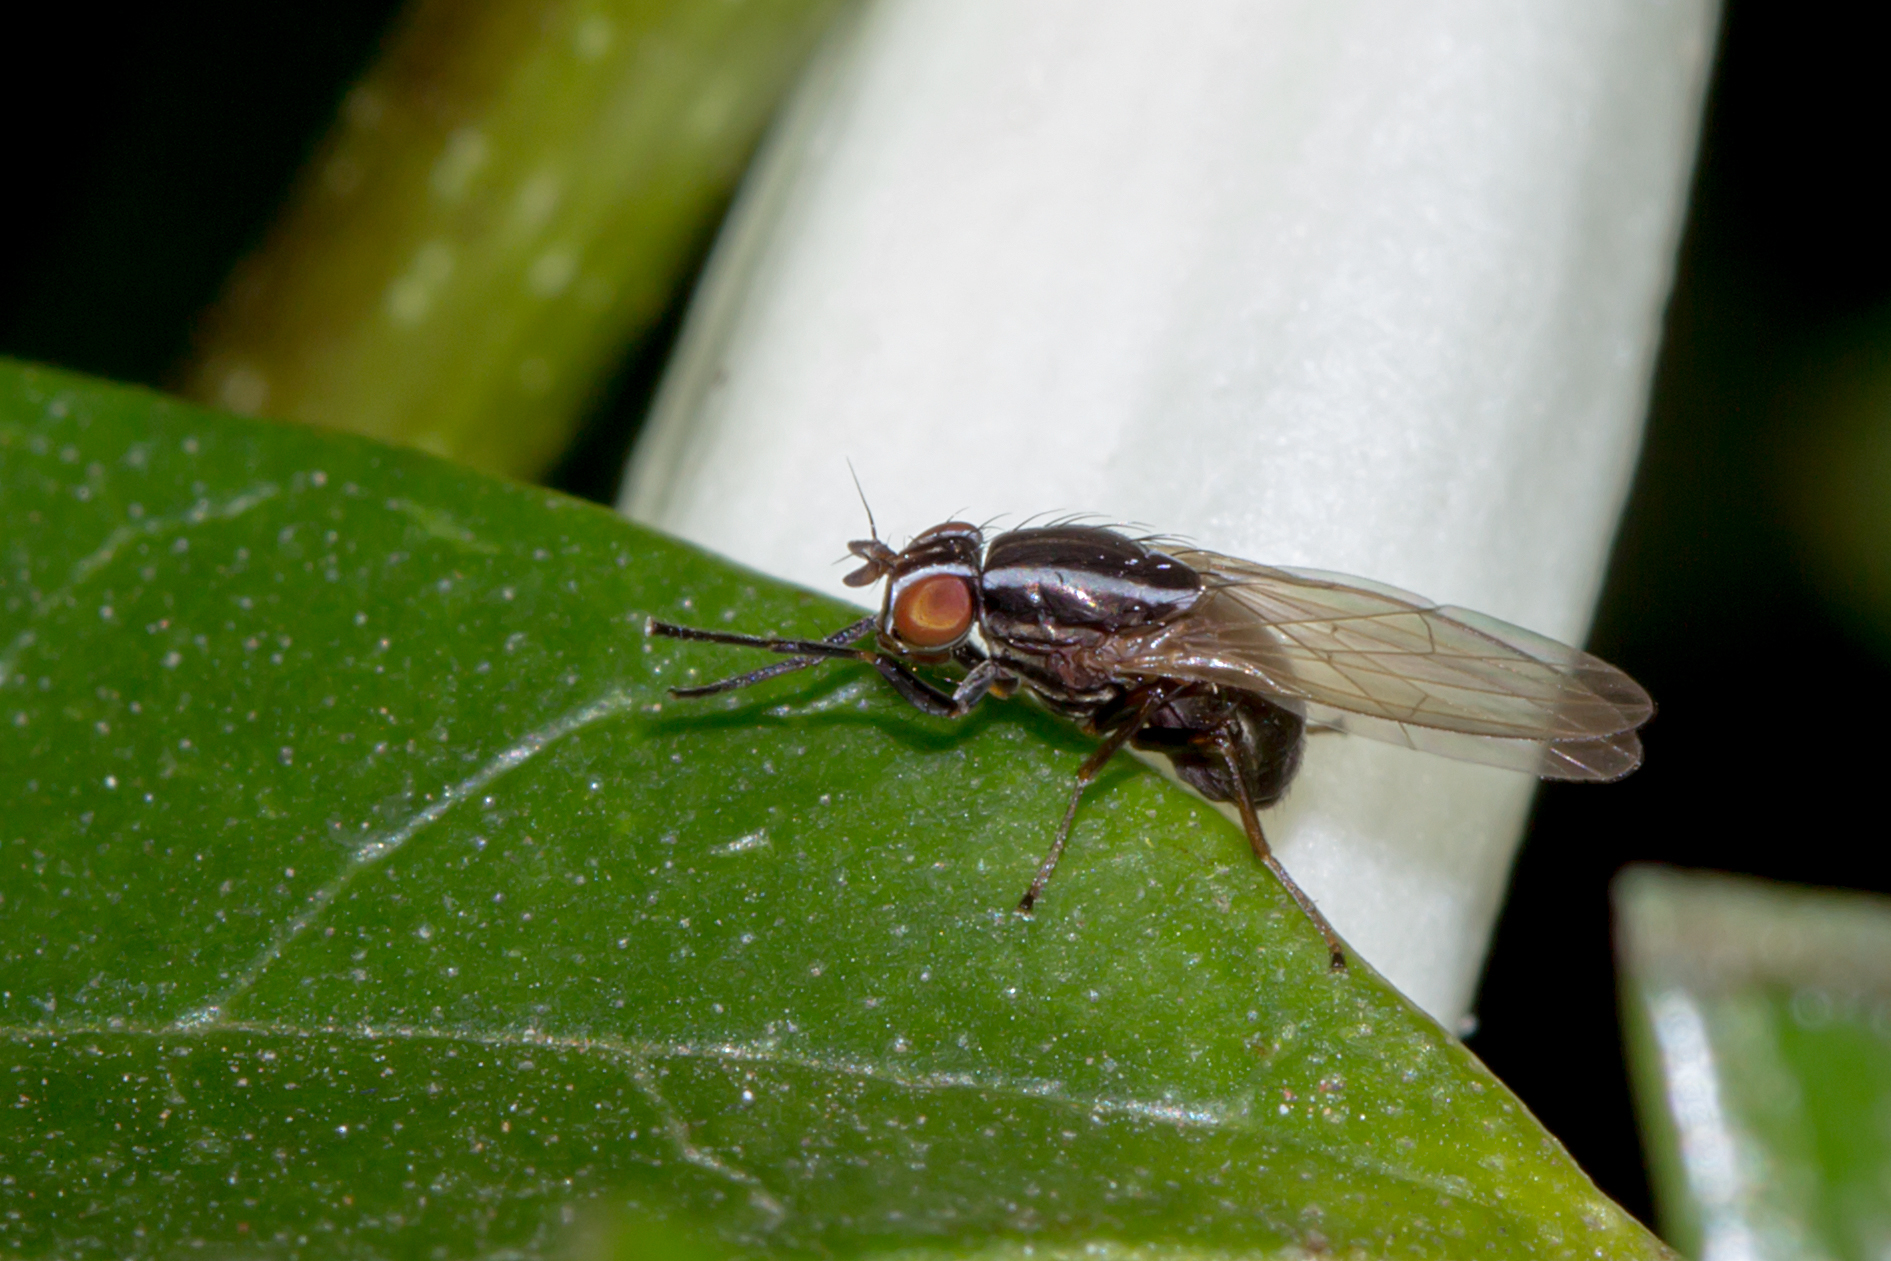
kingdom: Animalia
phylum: Arthropoda
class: Insecta
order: Diptera
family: Lauxaniidae
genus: Poecilohetaerus
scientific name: Poecilohetaerus aquilus
